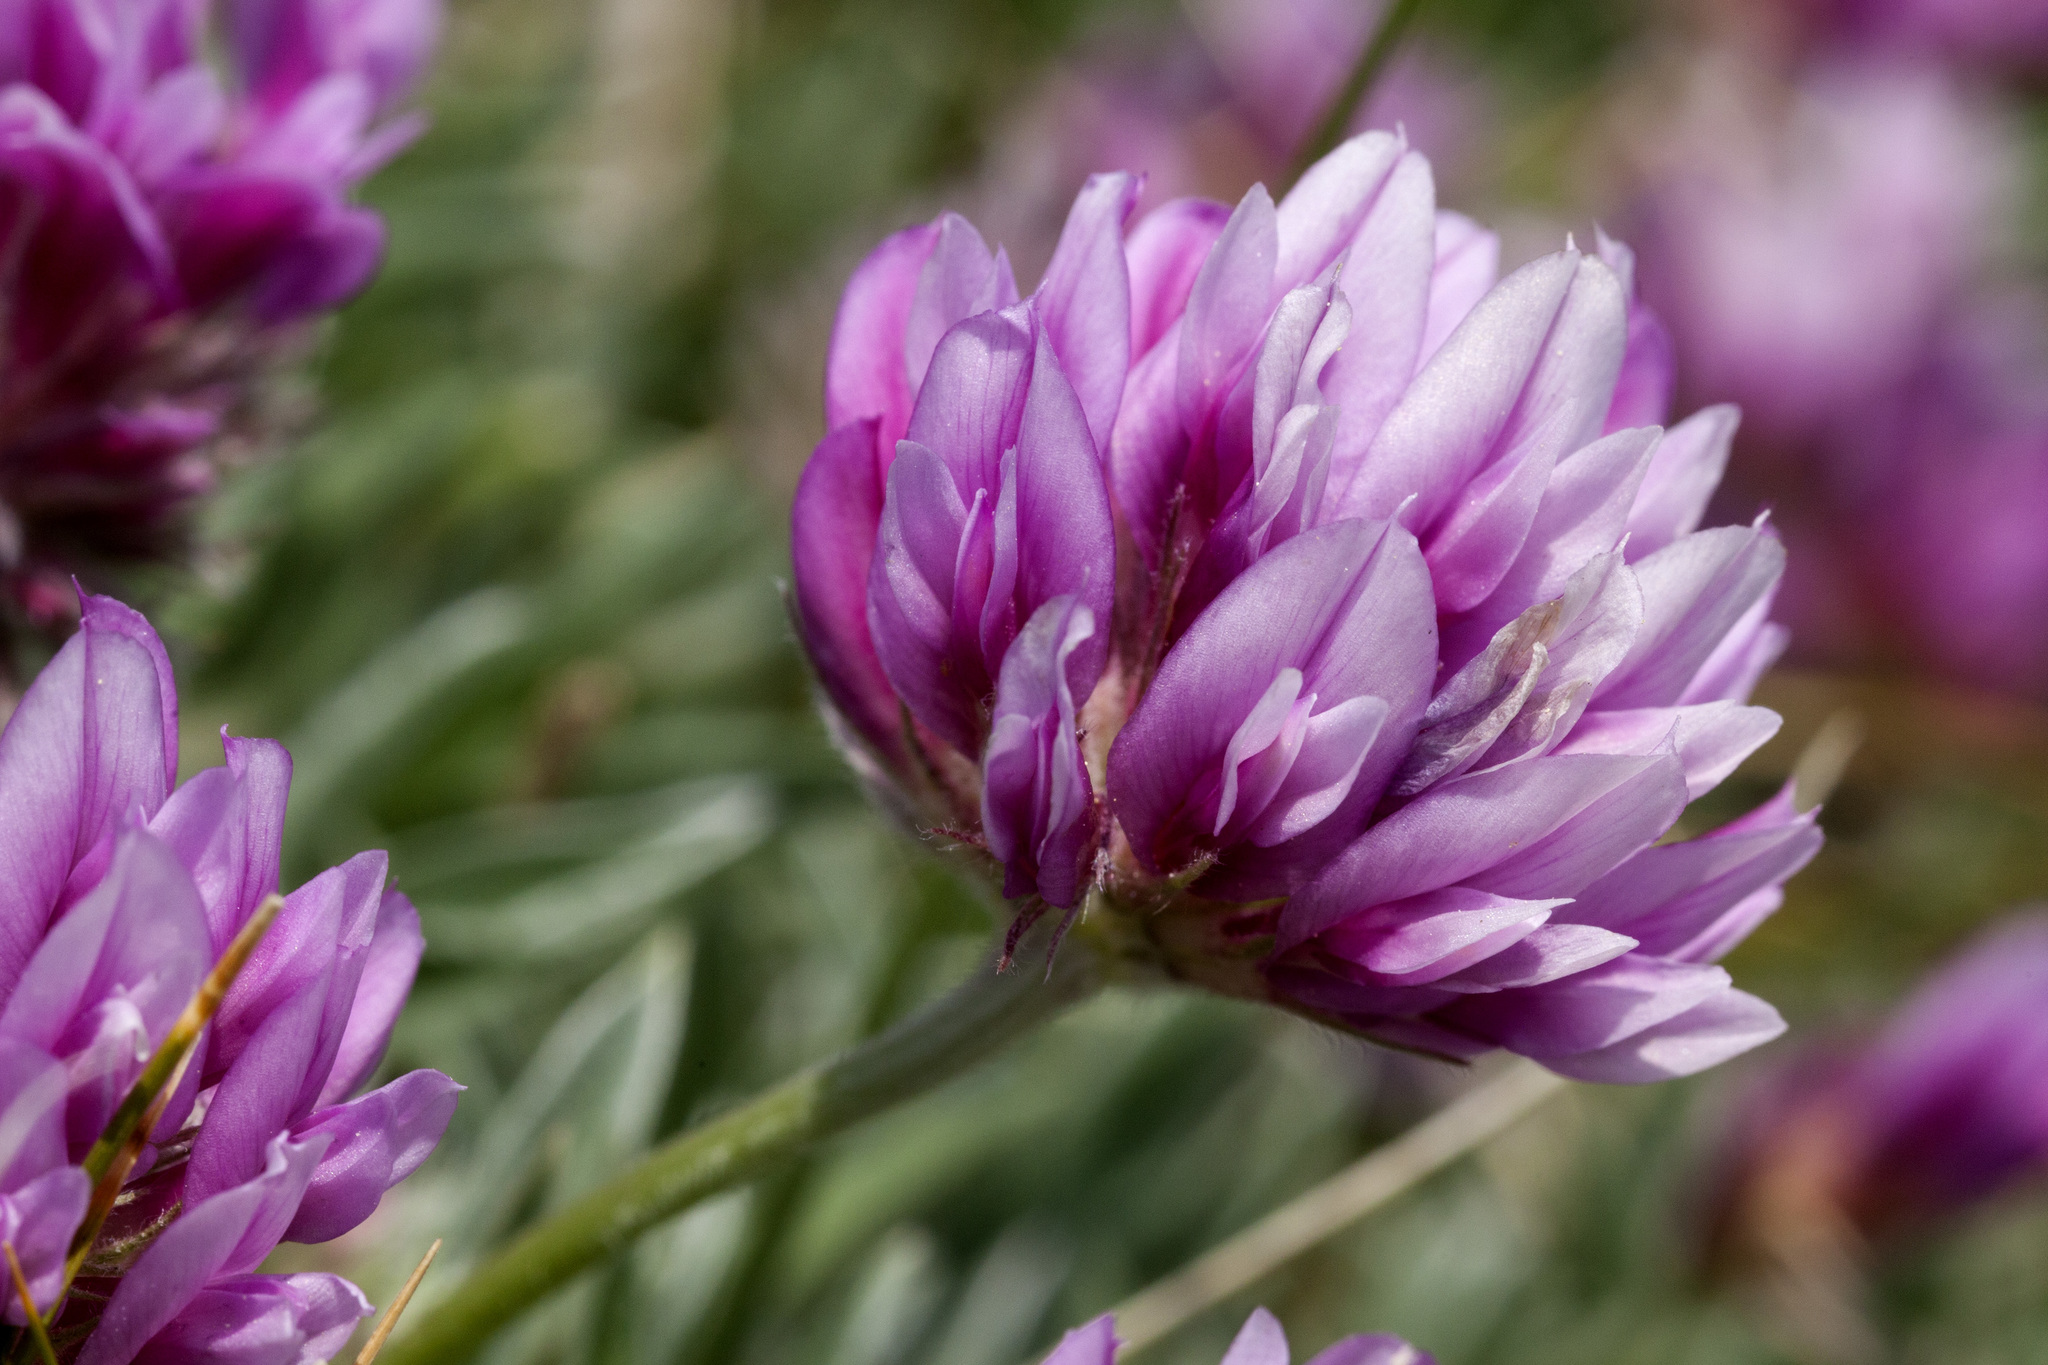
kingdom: Plantae
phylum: Tracheophyta
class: Magnoliopsida
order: Fabales
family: Fabaceae
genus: Trifolium
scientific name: Trifolium attenuatum
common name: Rocky mountain clover
